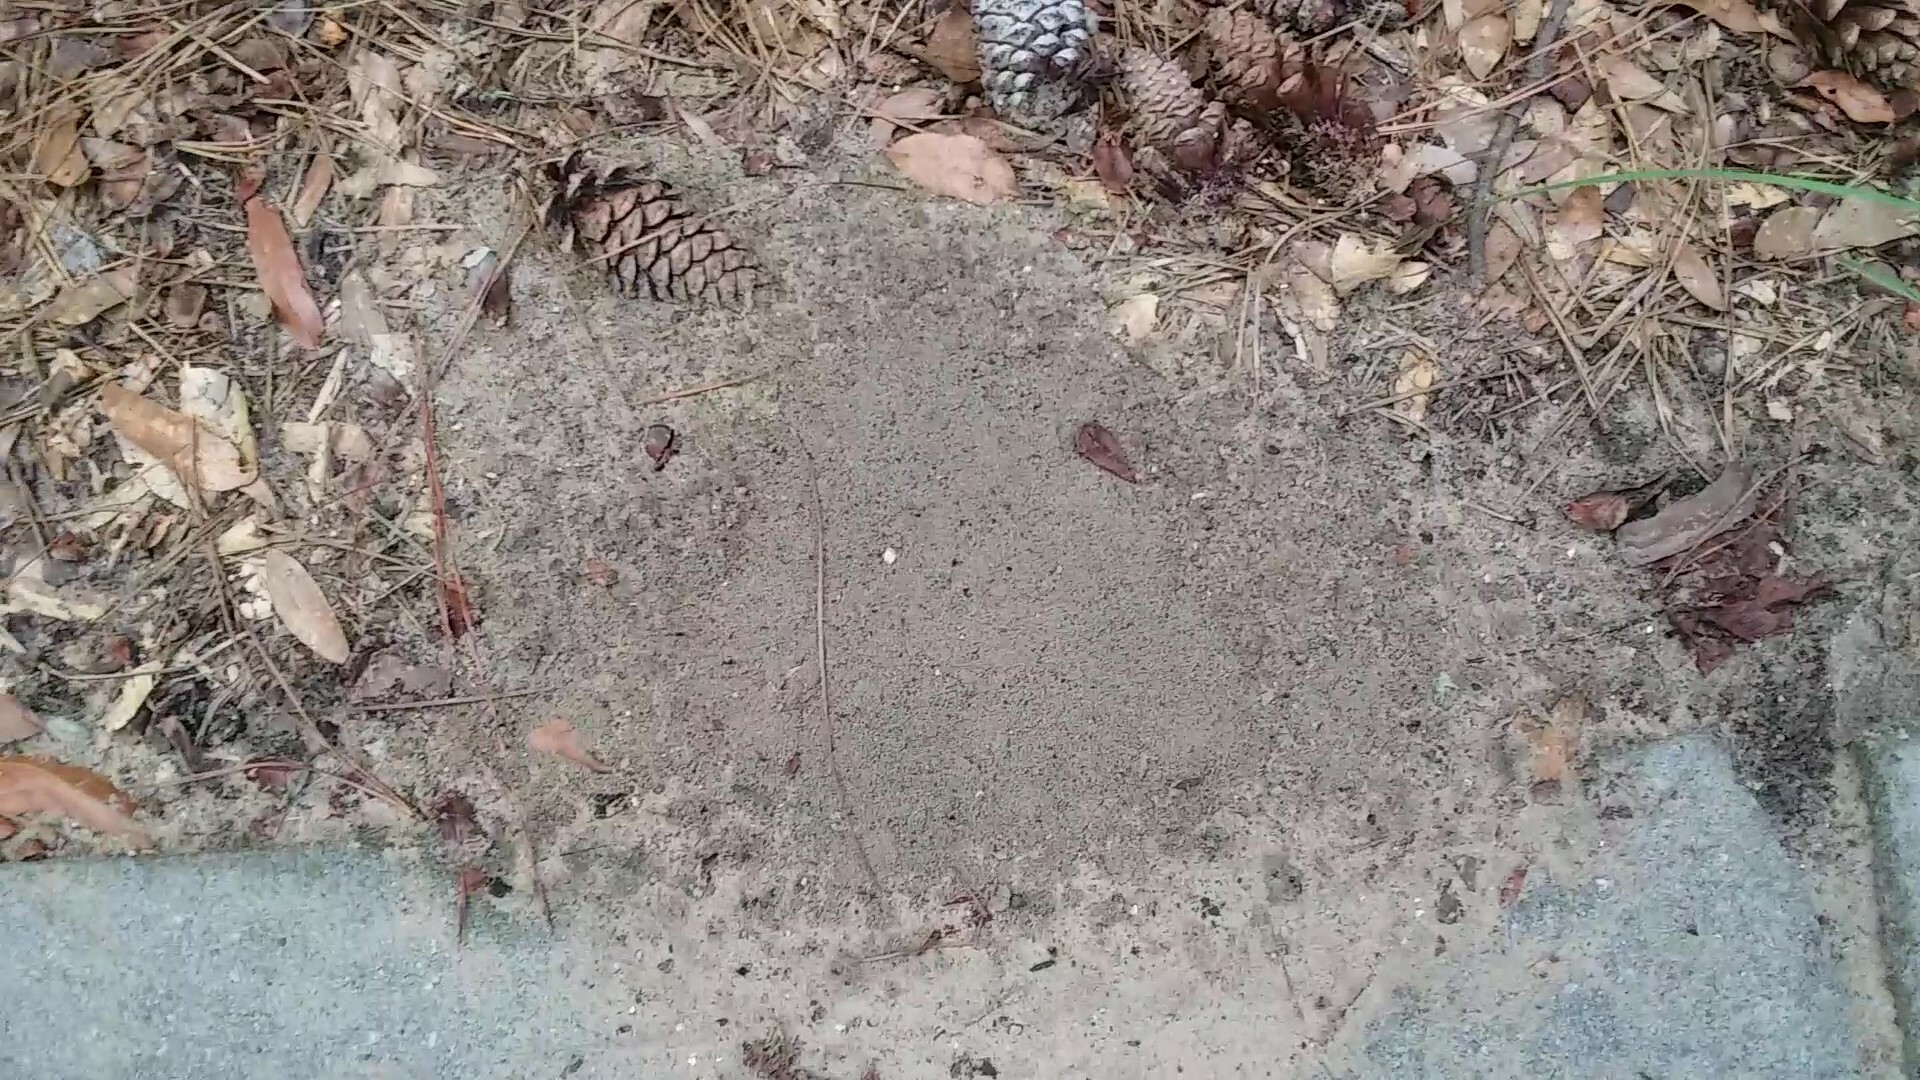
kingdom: Animalia
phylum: Arthropoda
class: Insecta
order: Hymenoptera
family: Formicidae
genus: Solenopsis
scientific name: Solenopsis invicta
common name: Red imported fire ant
